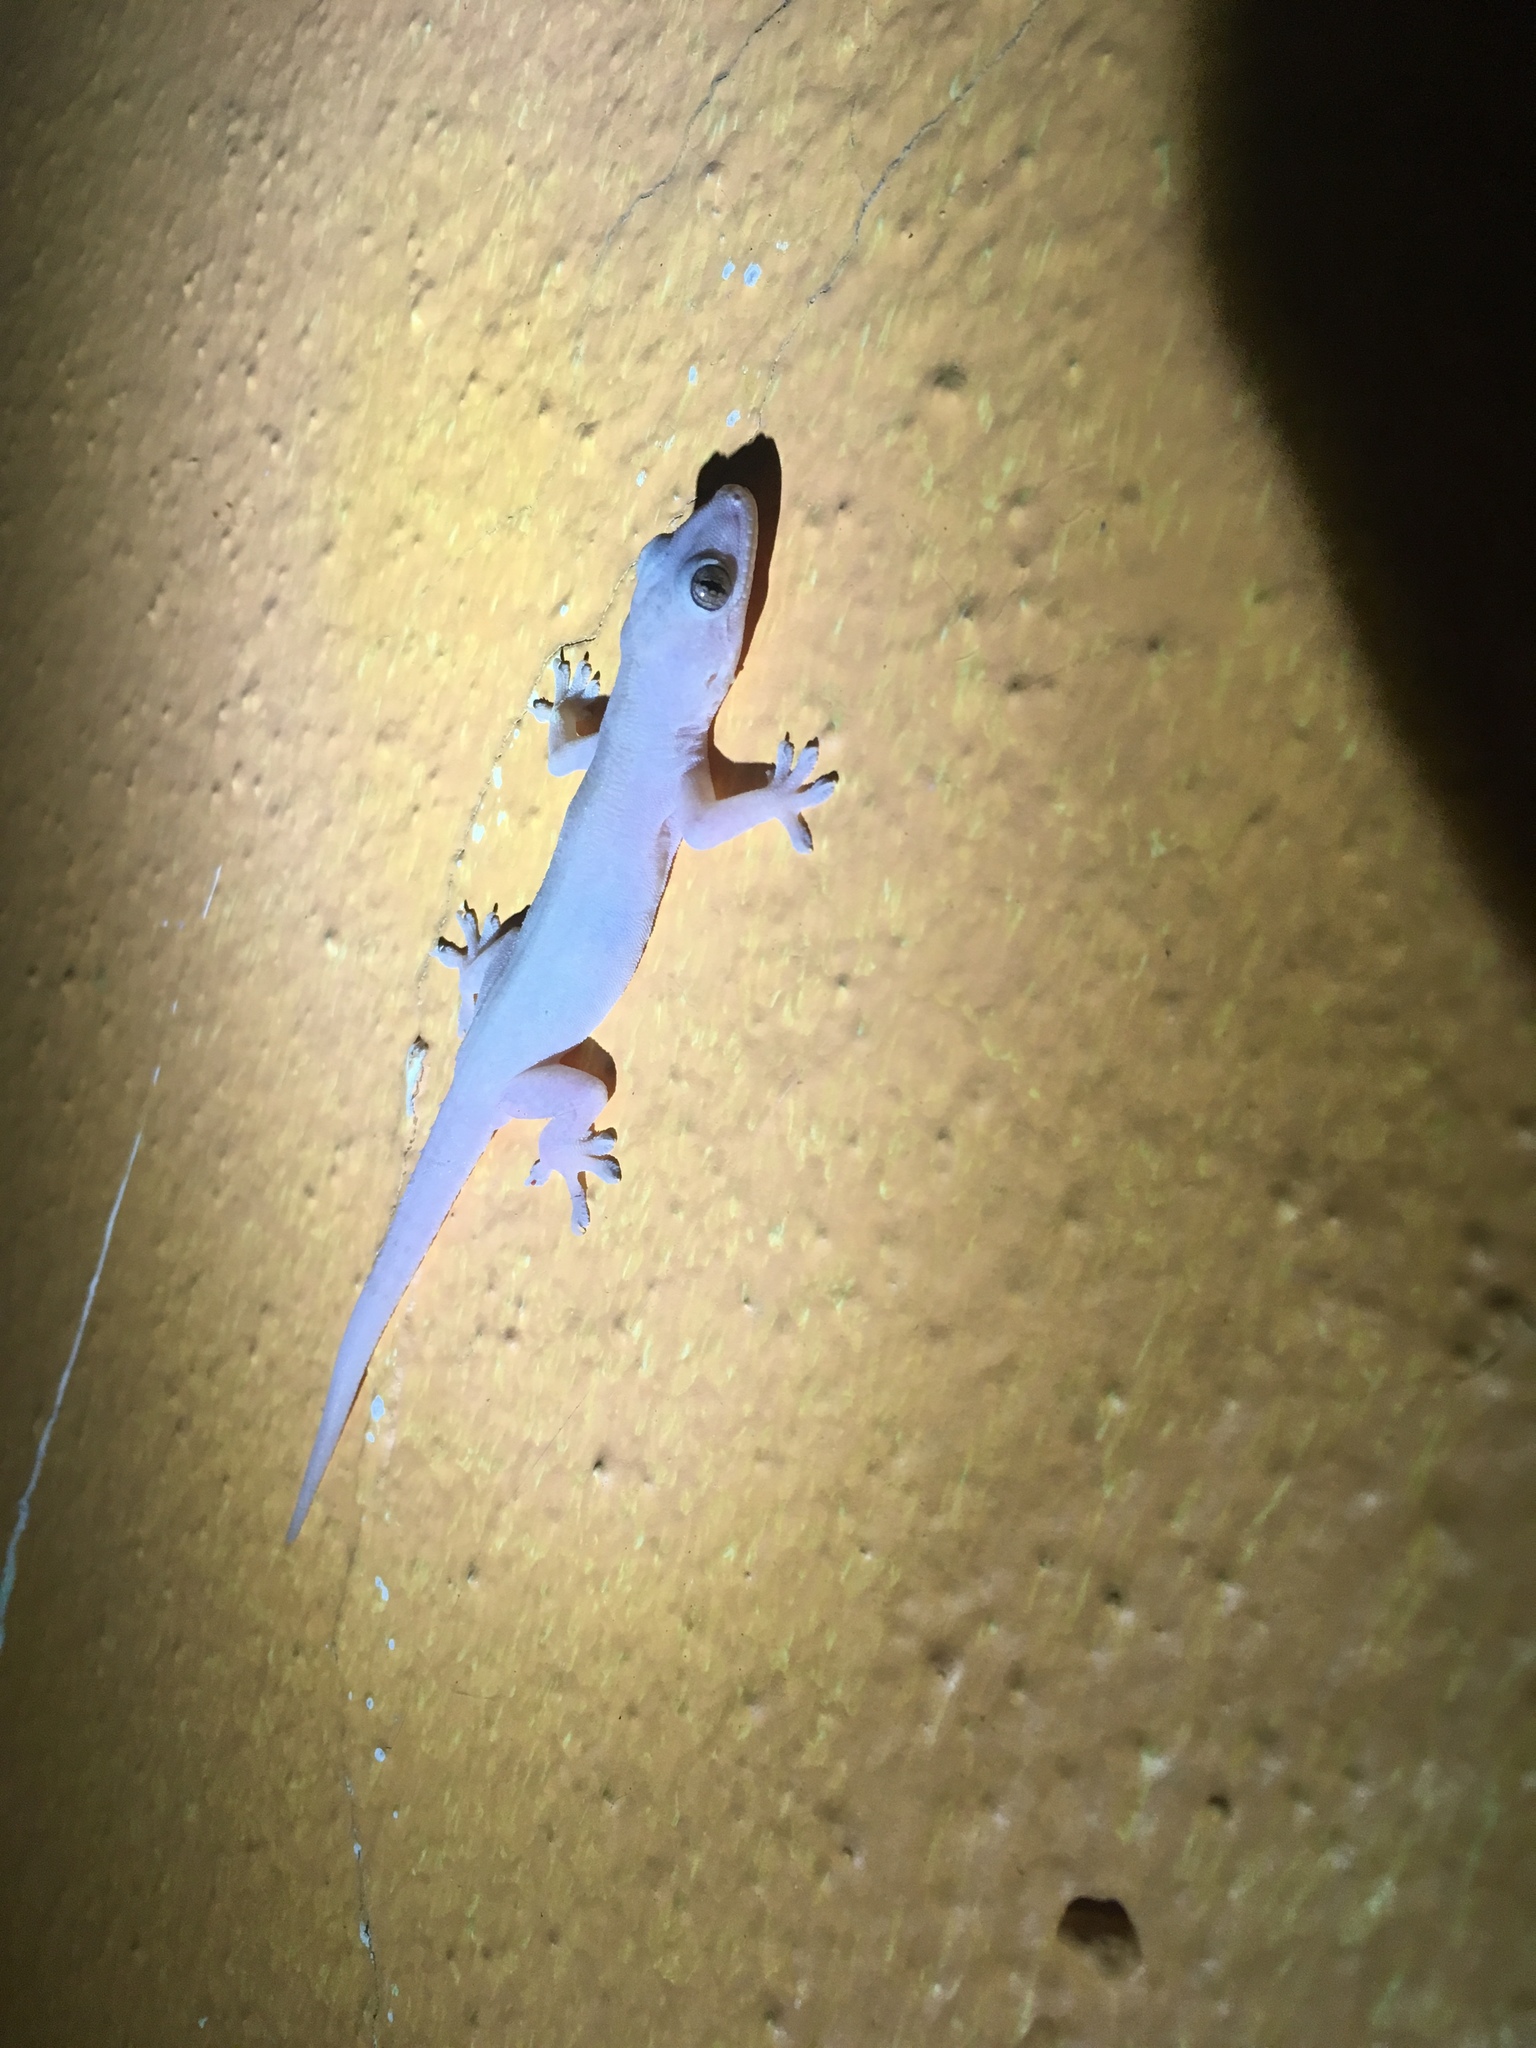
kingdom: Animalia
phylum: Chordata
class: Squamata
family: Gekkonidae
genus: Hemidactylus
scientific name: Hemidactylus frenatus
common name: Common house gecko
